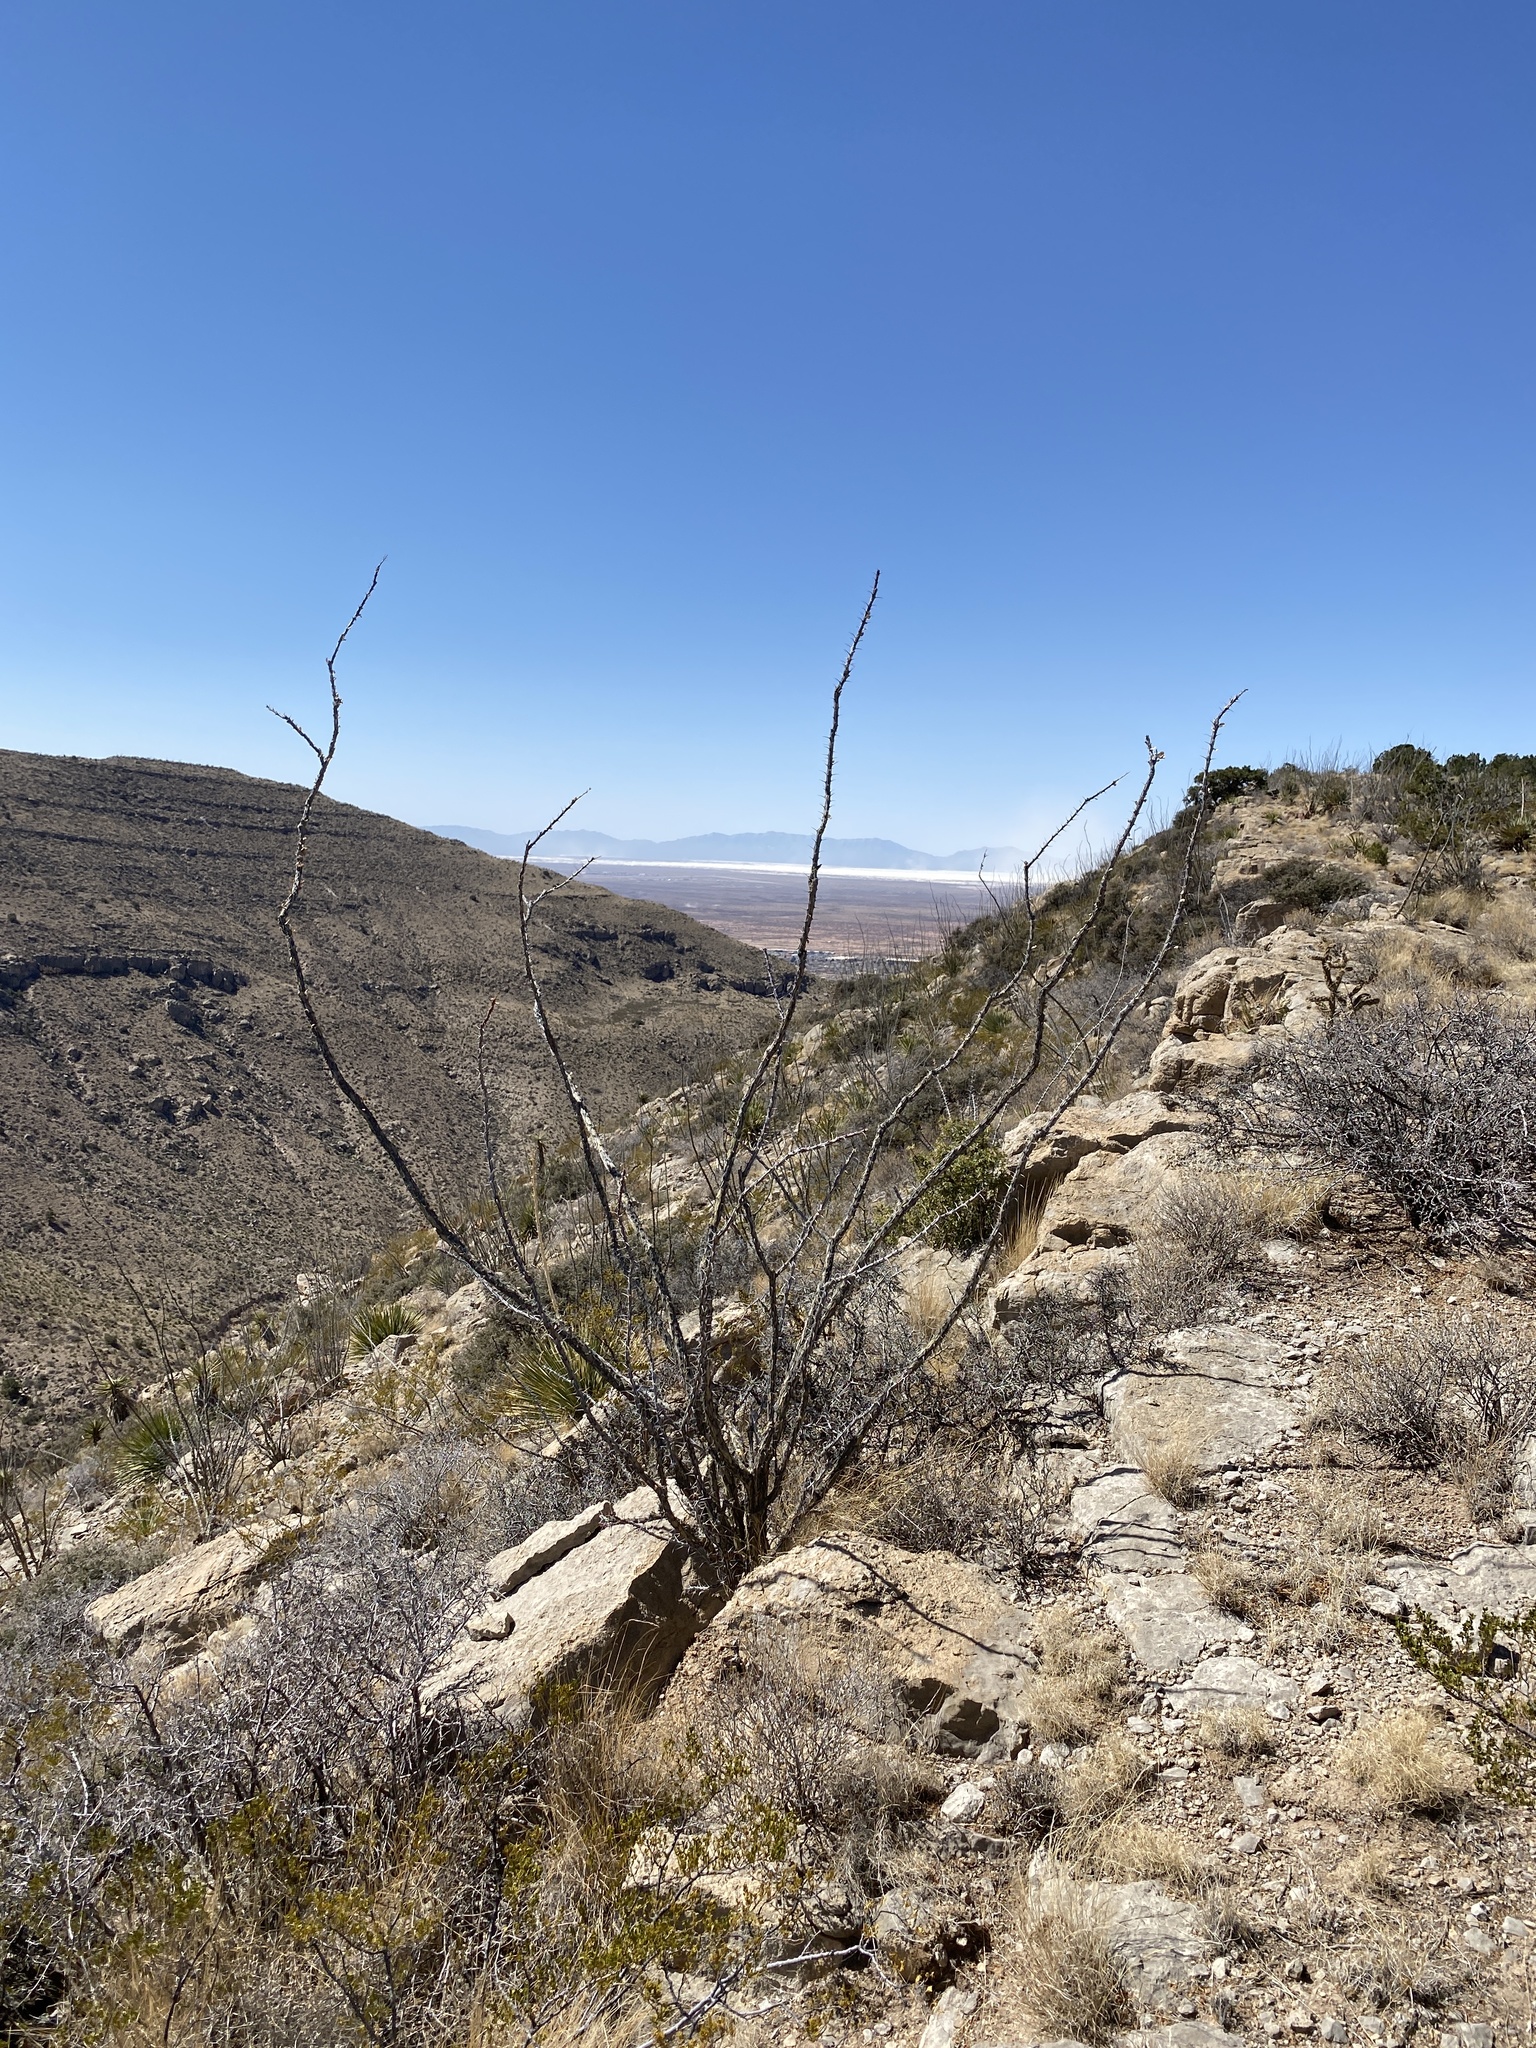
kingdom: Plantae
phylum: Tracheophyta
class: Magnoliopsida
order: Ericales
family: Fouquieriaceae
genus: Fouquieria
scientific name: Fouquieria splendens
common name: Vine-cactus
